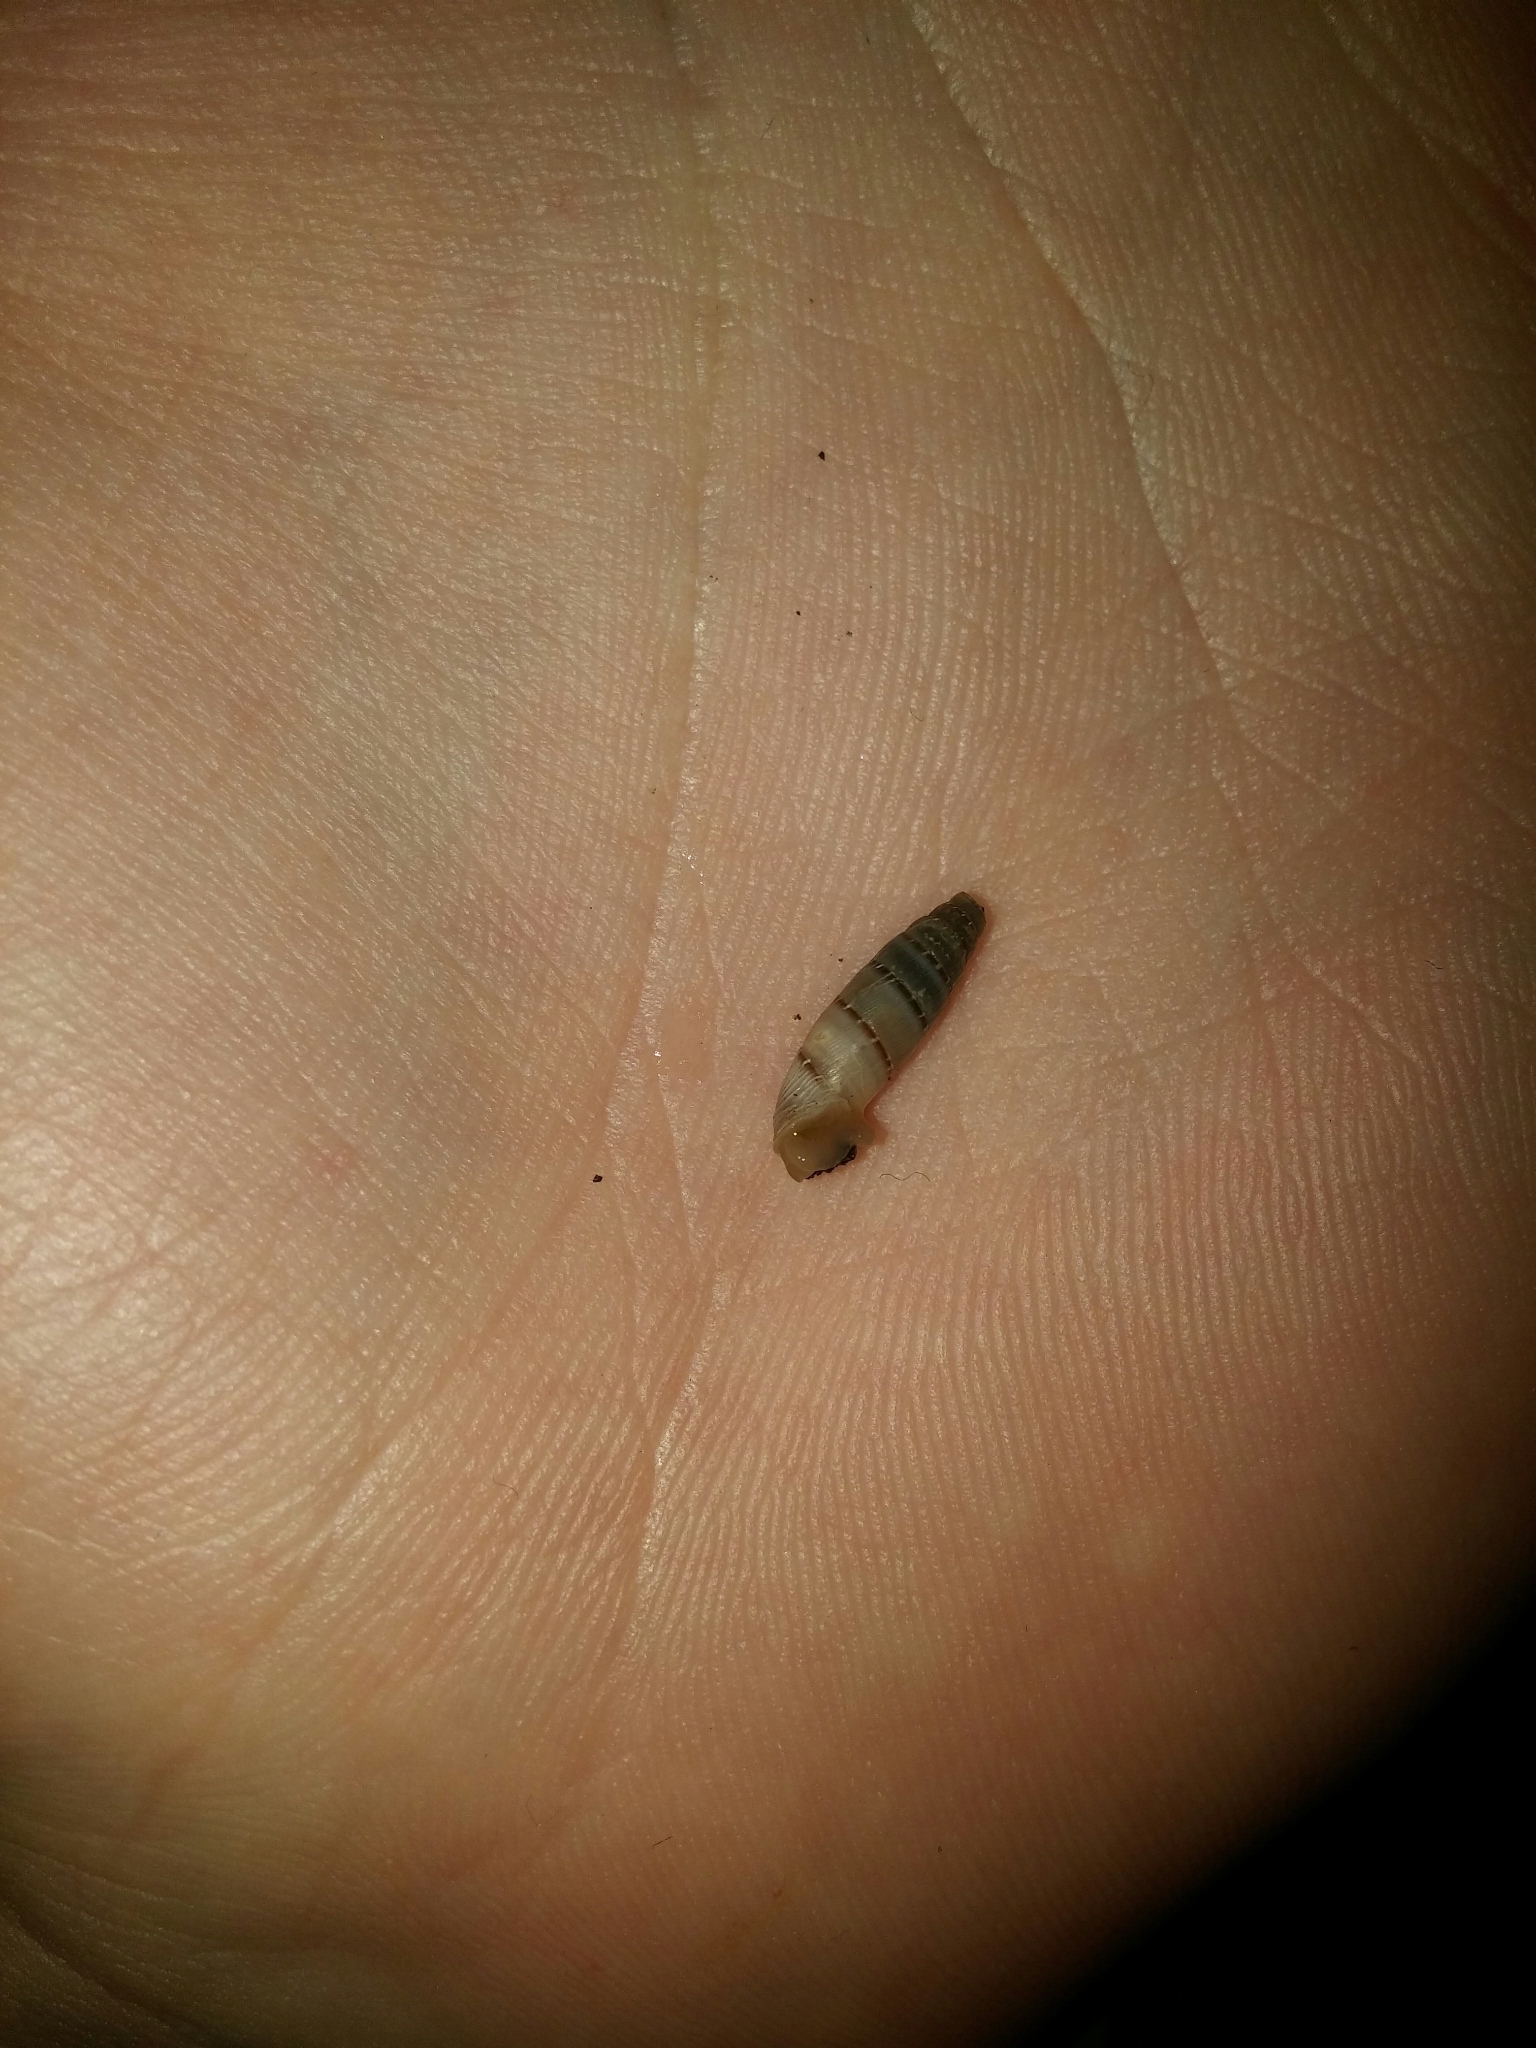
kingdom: Animalia
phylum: Mollusca
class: Gastropoda
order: Stylommatophora
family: Clausiliidae
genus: Papillifera
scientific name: Papillifera papillaris
